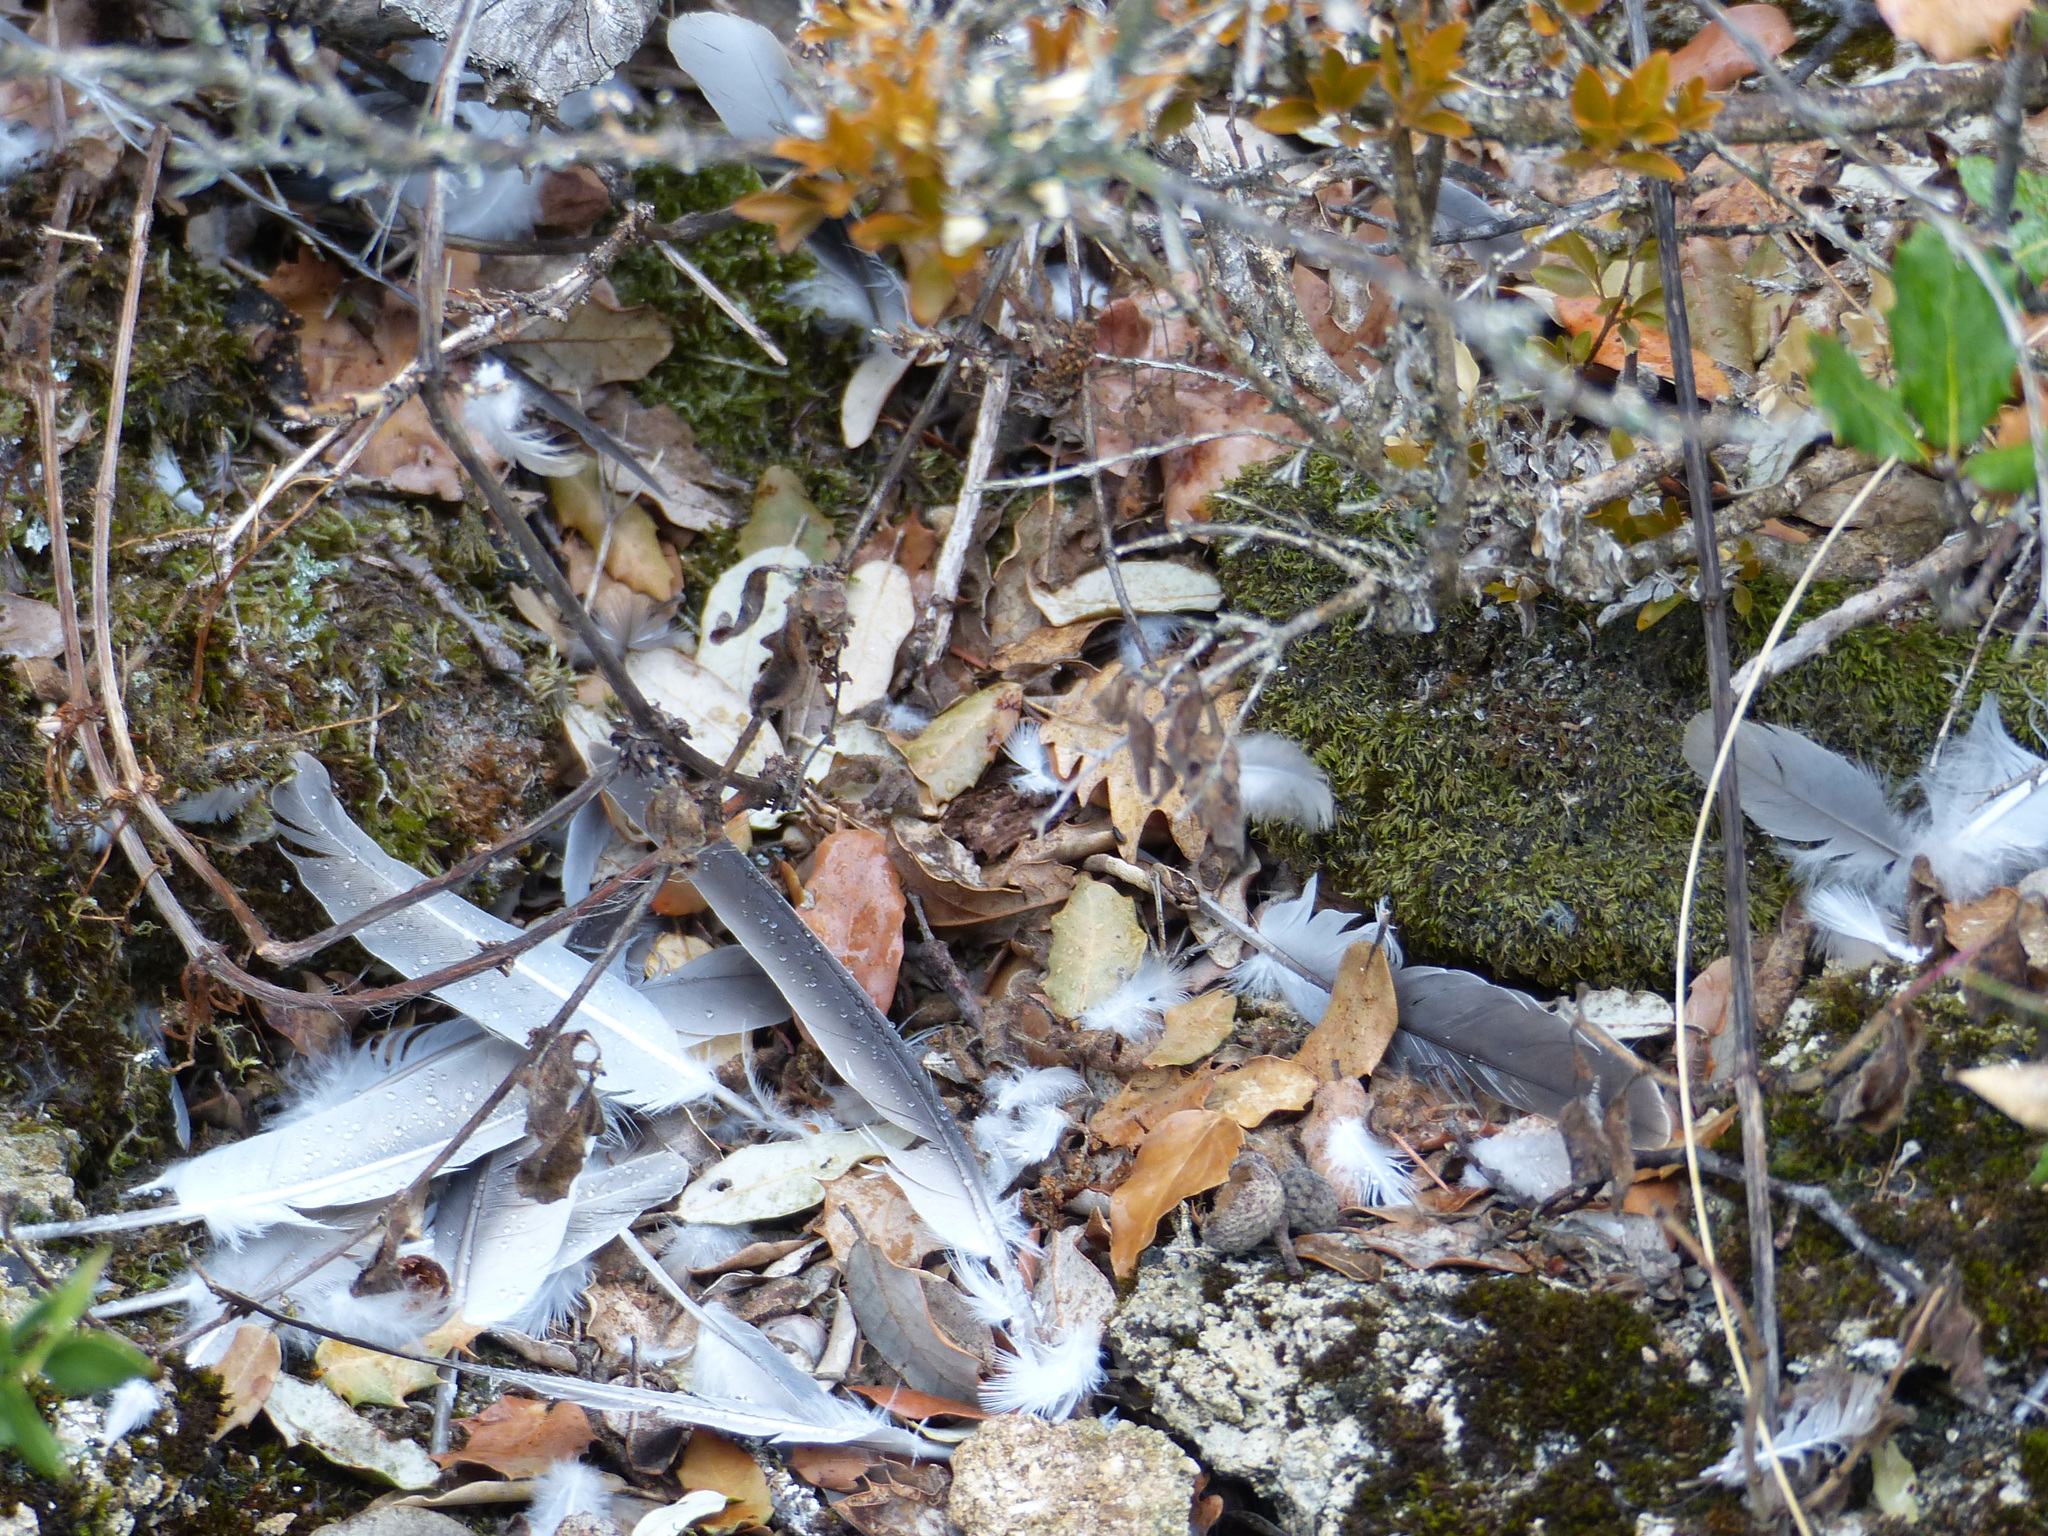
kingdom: Animalia
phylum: Chordata
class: Aves
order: Columbiformes
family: Columbidae
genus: Streptopelia
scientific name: Streptopelia decaocto
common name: Eurasian collared dove
